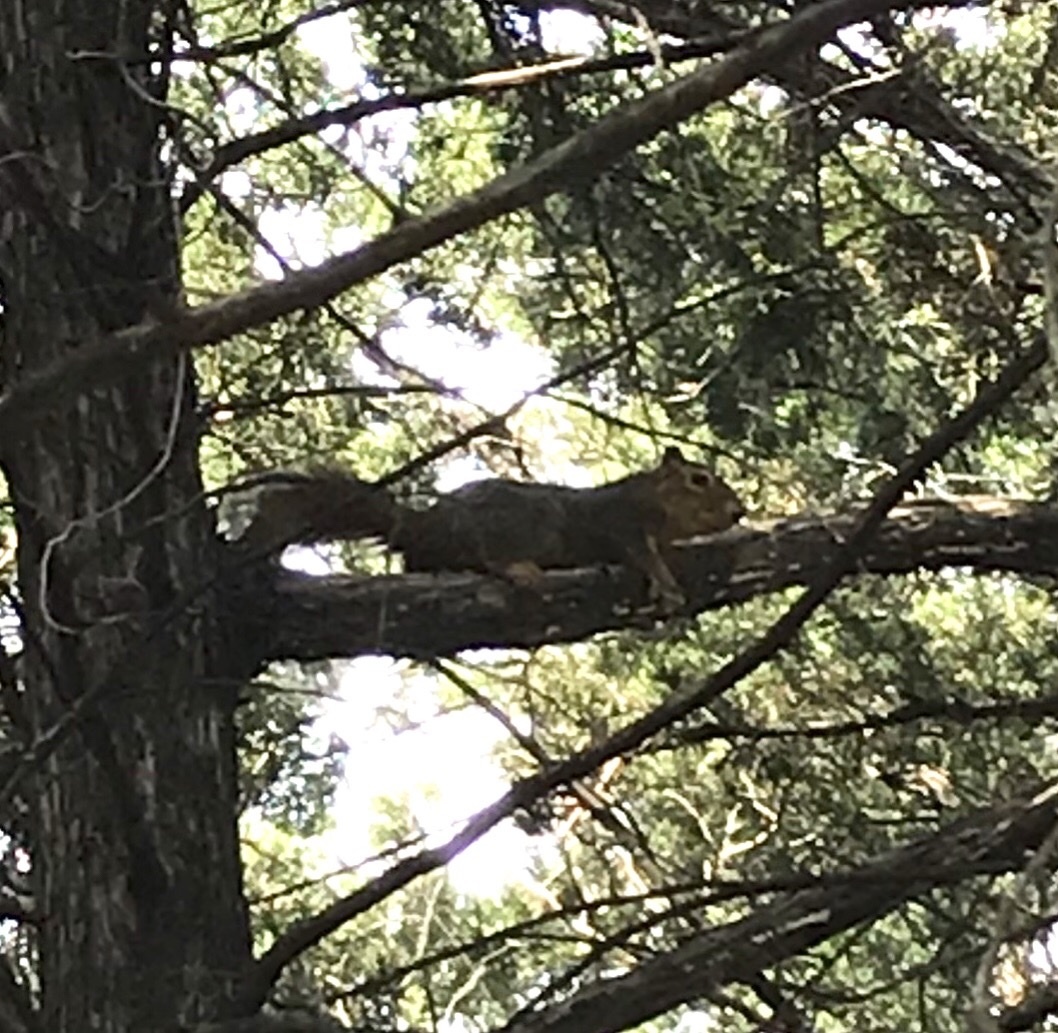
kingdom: Animalia
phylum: Chordata
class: Mammalia
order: Rodentia
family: Sciuridae
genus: Sciurus
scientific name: Sciurus niger
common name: Fox squirrel
